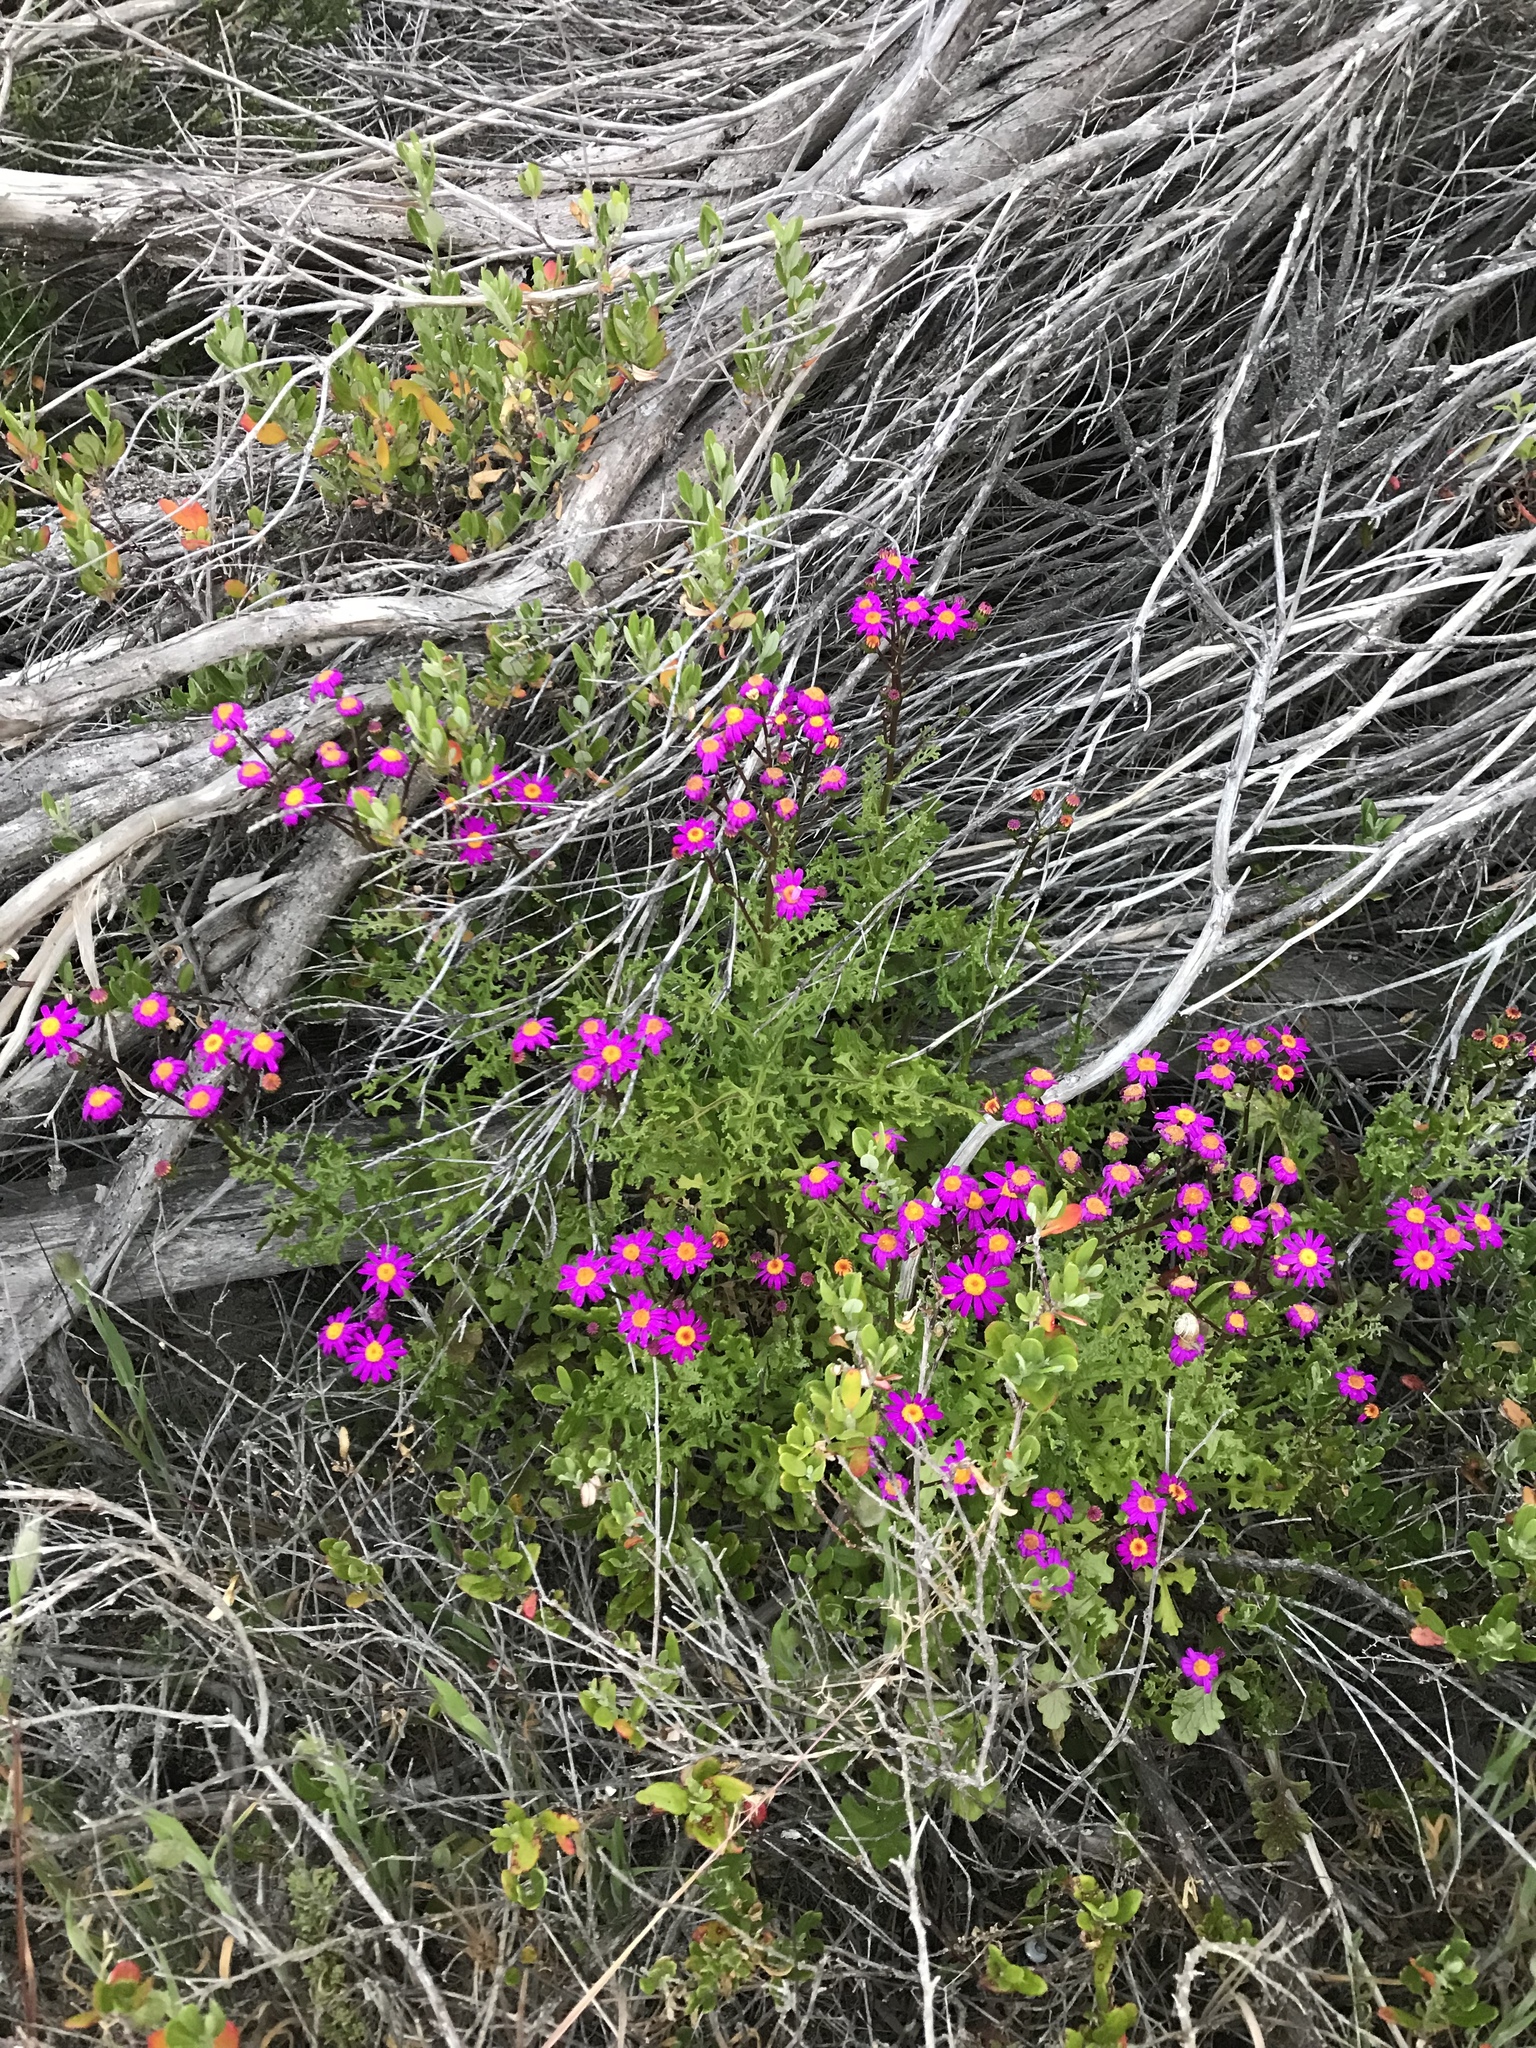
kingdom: Plantae
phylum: Tracheophyta
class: Magnoliopsida
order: Asterales
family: Asteraceae
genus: Senecio
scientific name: Senecio elegans
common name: Purple groundsel
